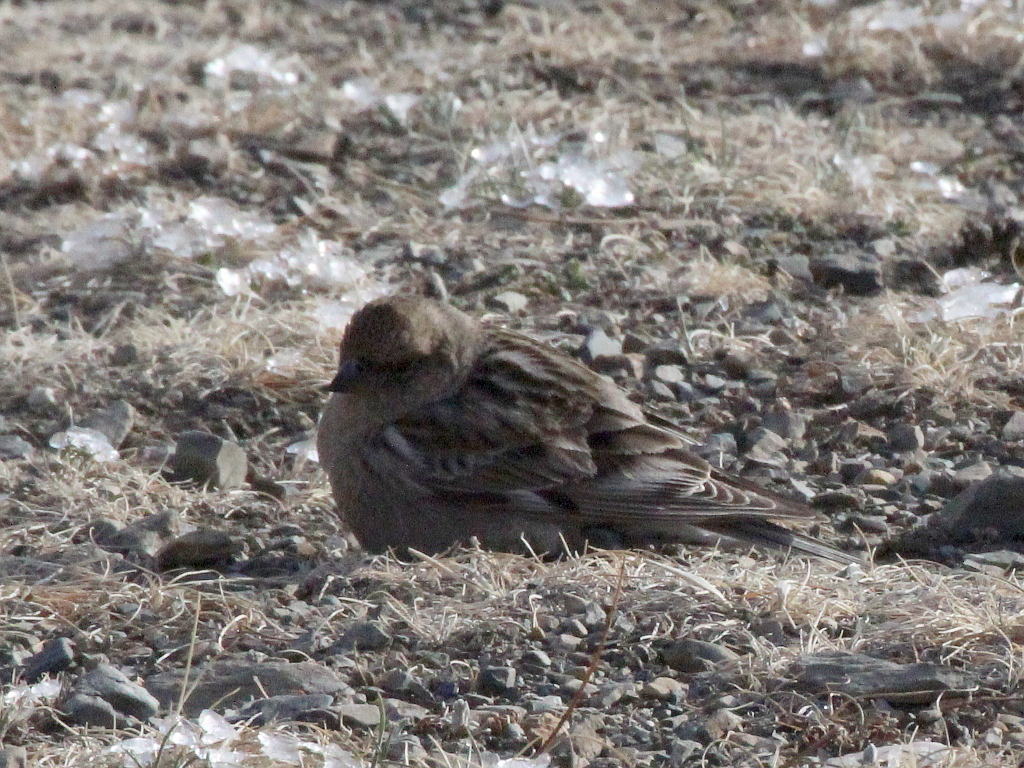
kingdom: Animalia
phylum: Chordata
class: Aves
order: Passeriformes
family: Fringillidae
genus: Leucosticte
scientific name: Leucosticte nemoricola
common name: Plain mountain finch
